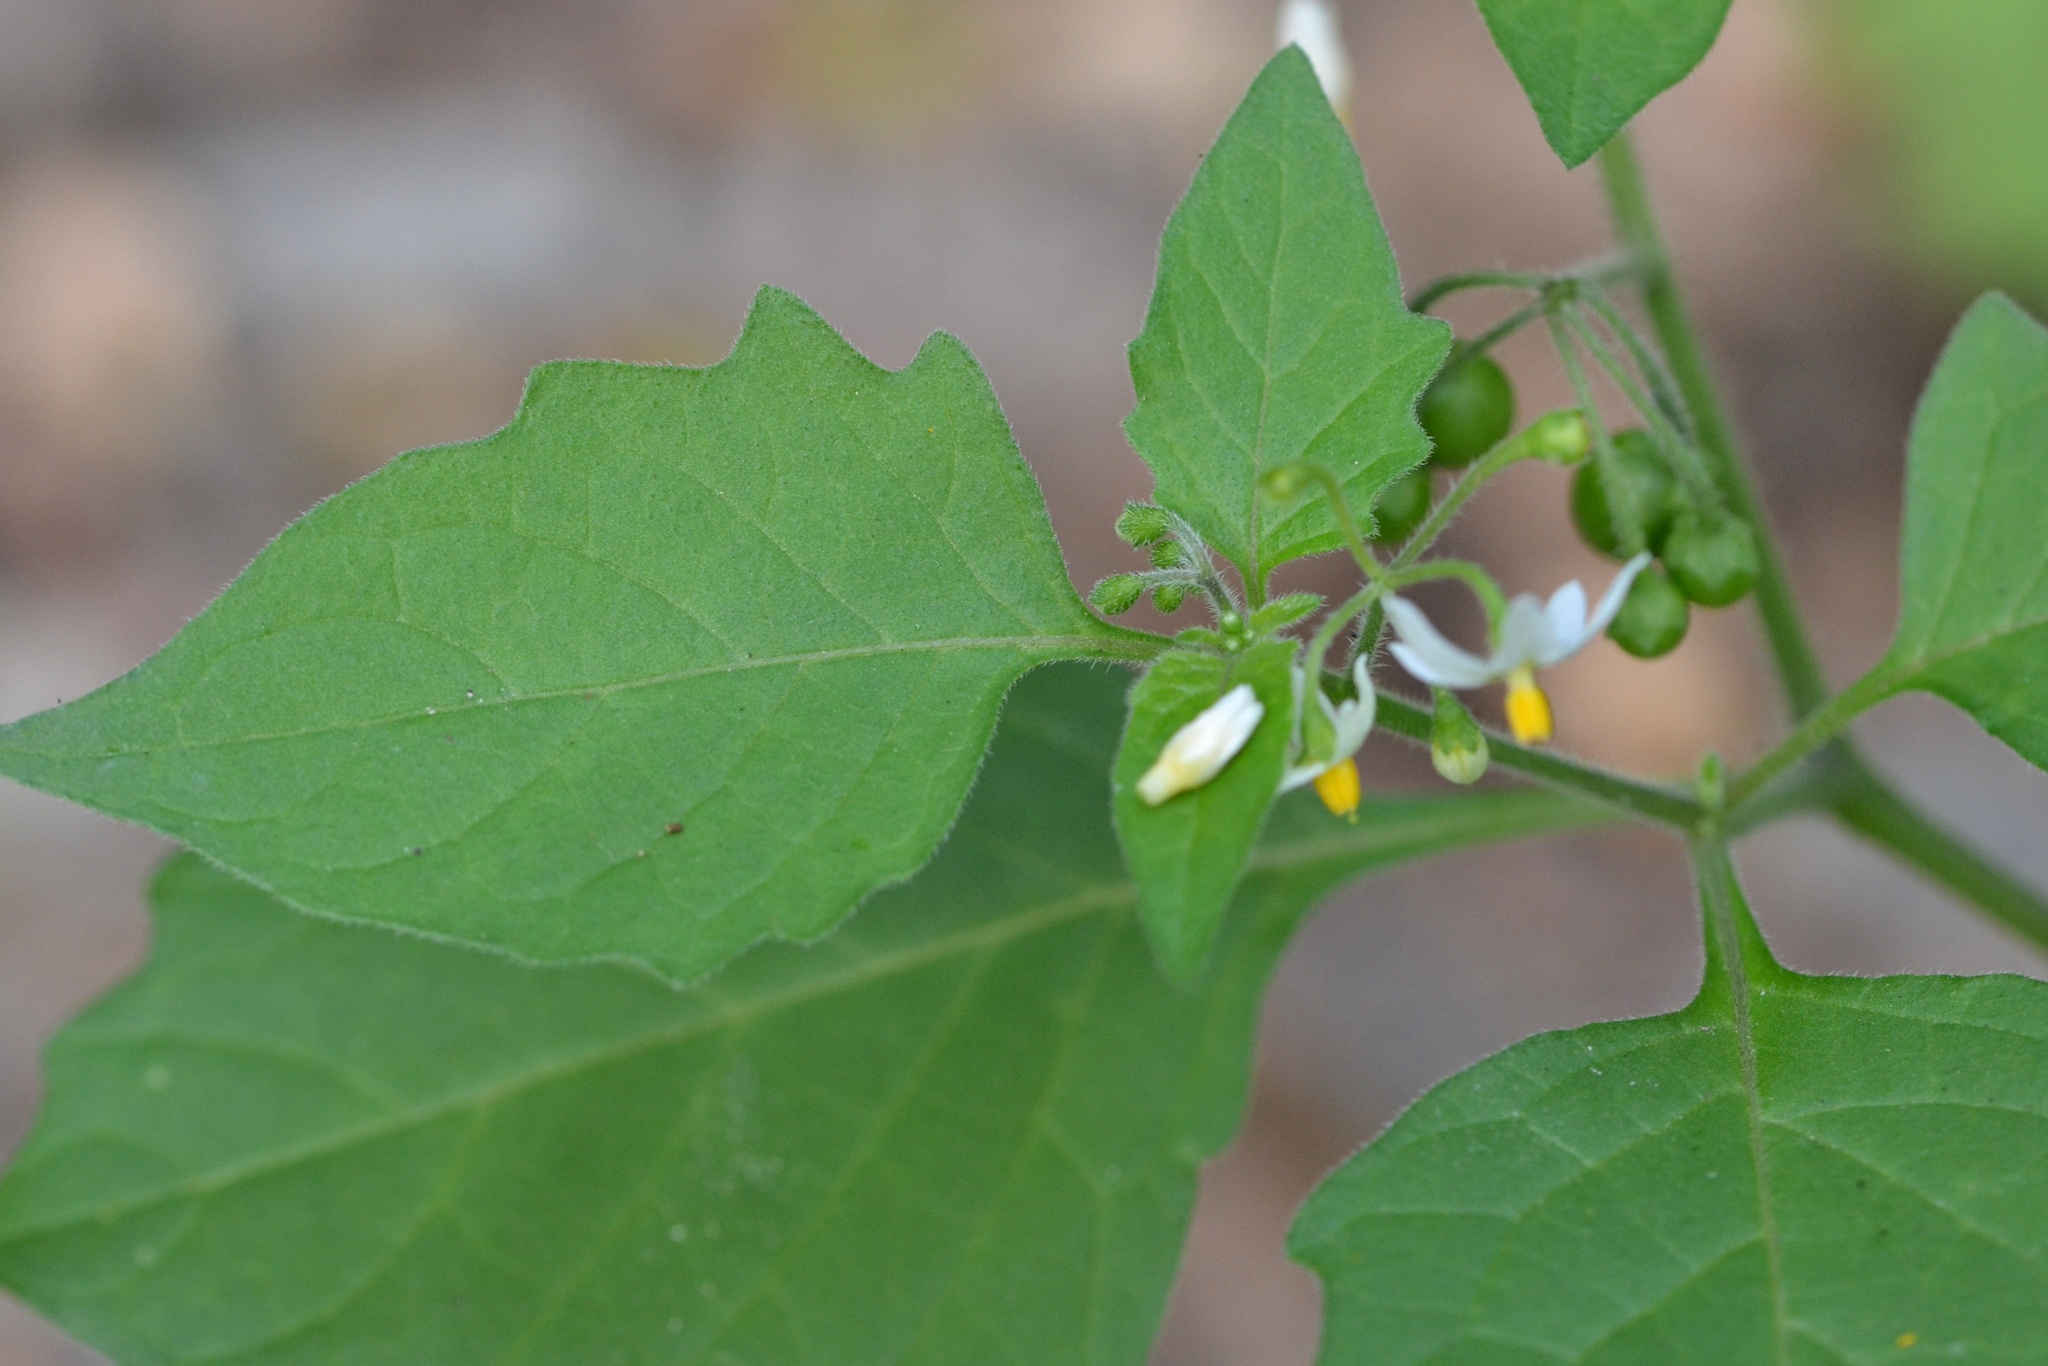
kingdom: Plantae
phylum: Tracheophyta
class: Magnoliopsida
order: Solanales
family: Solanaceae
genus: Solanum
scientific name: Solanum nigrum
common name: Black nightshade
